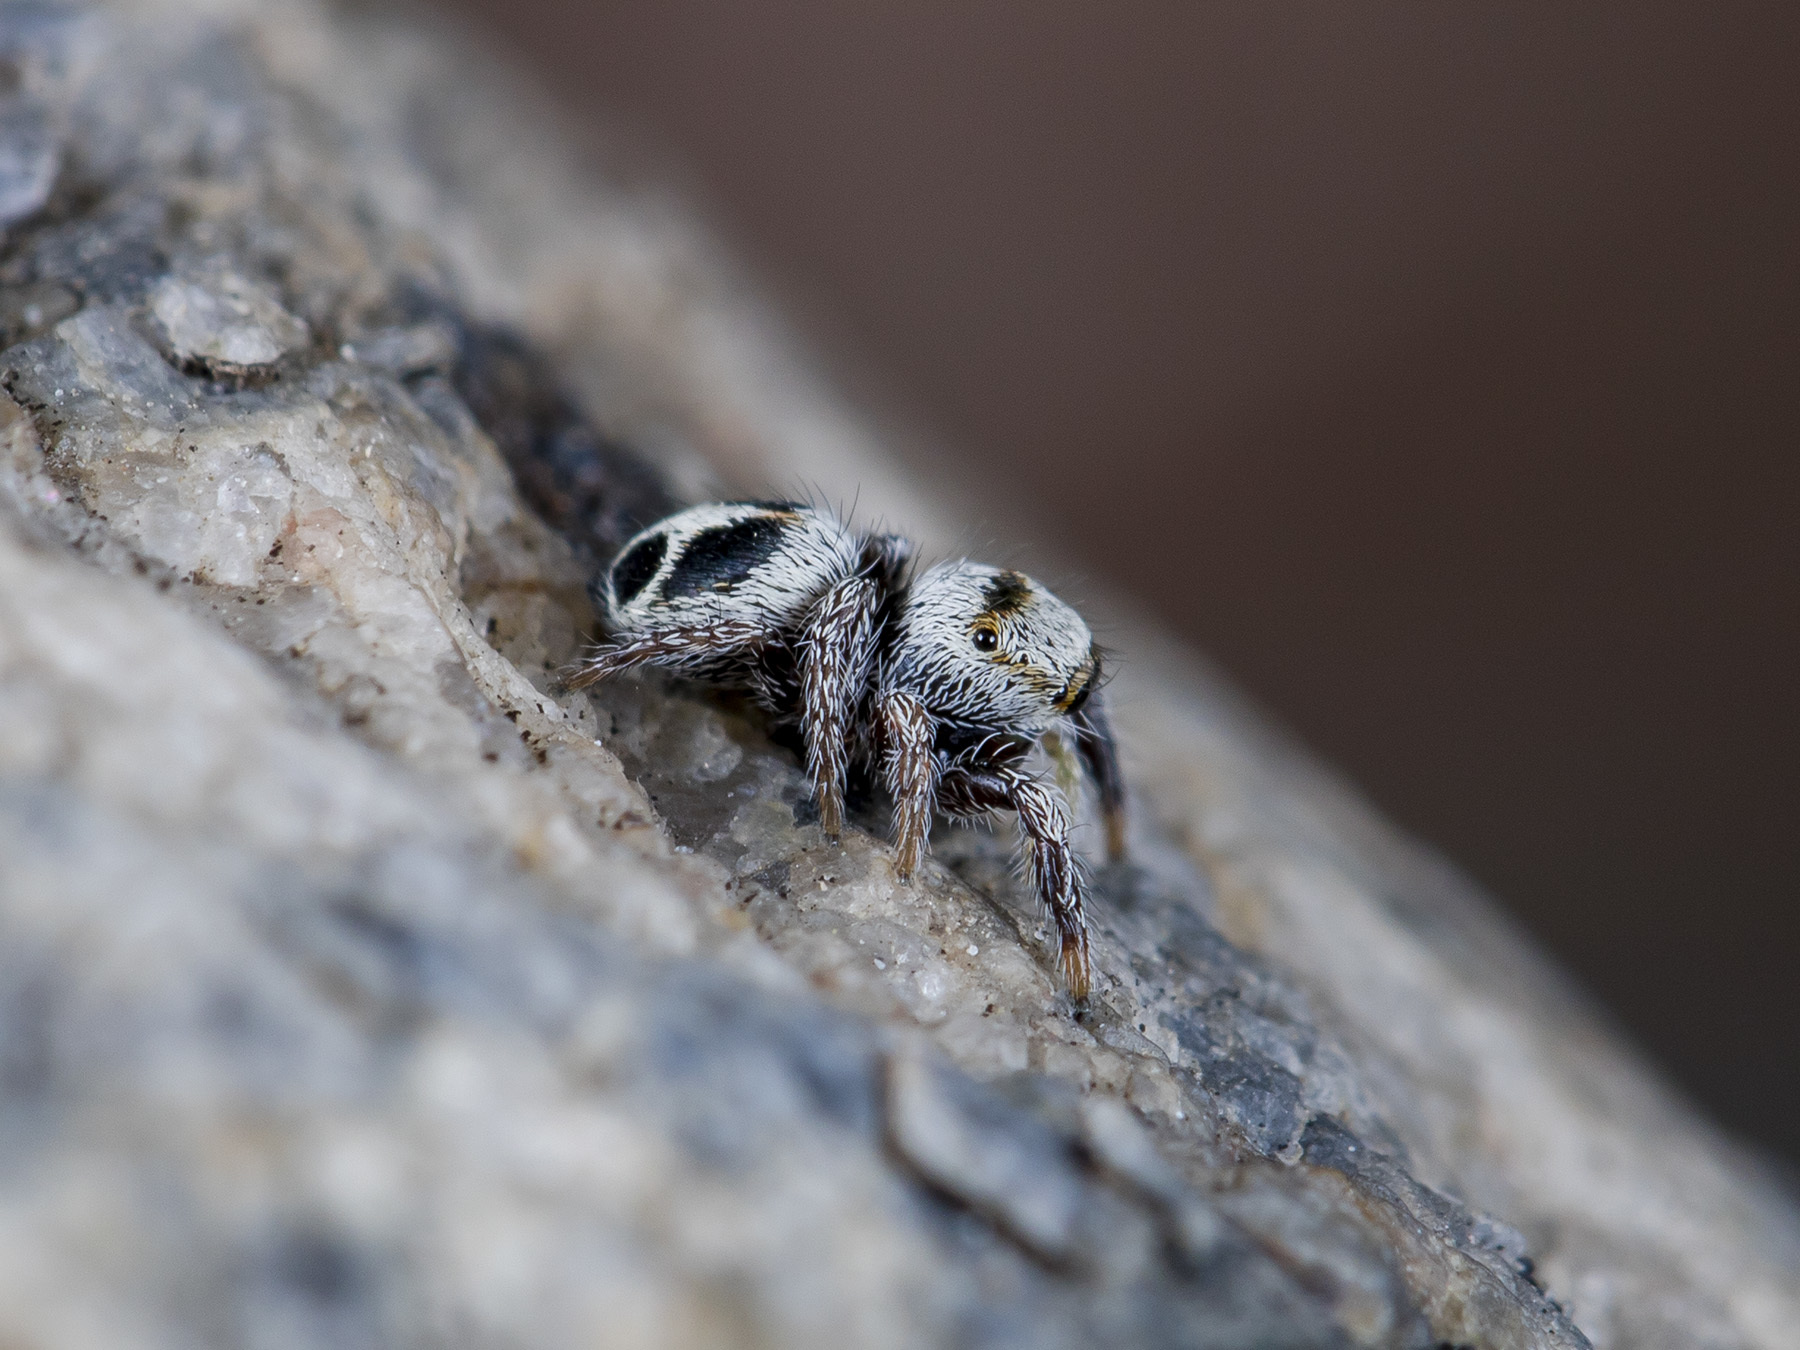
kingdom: Animalia
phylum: Arthropoda
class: Arachnida
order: Araneae
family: Salticidae
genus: Pellenes
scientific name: Pellenes geniculatus
